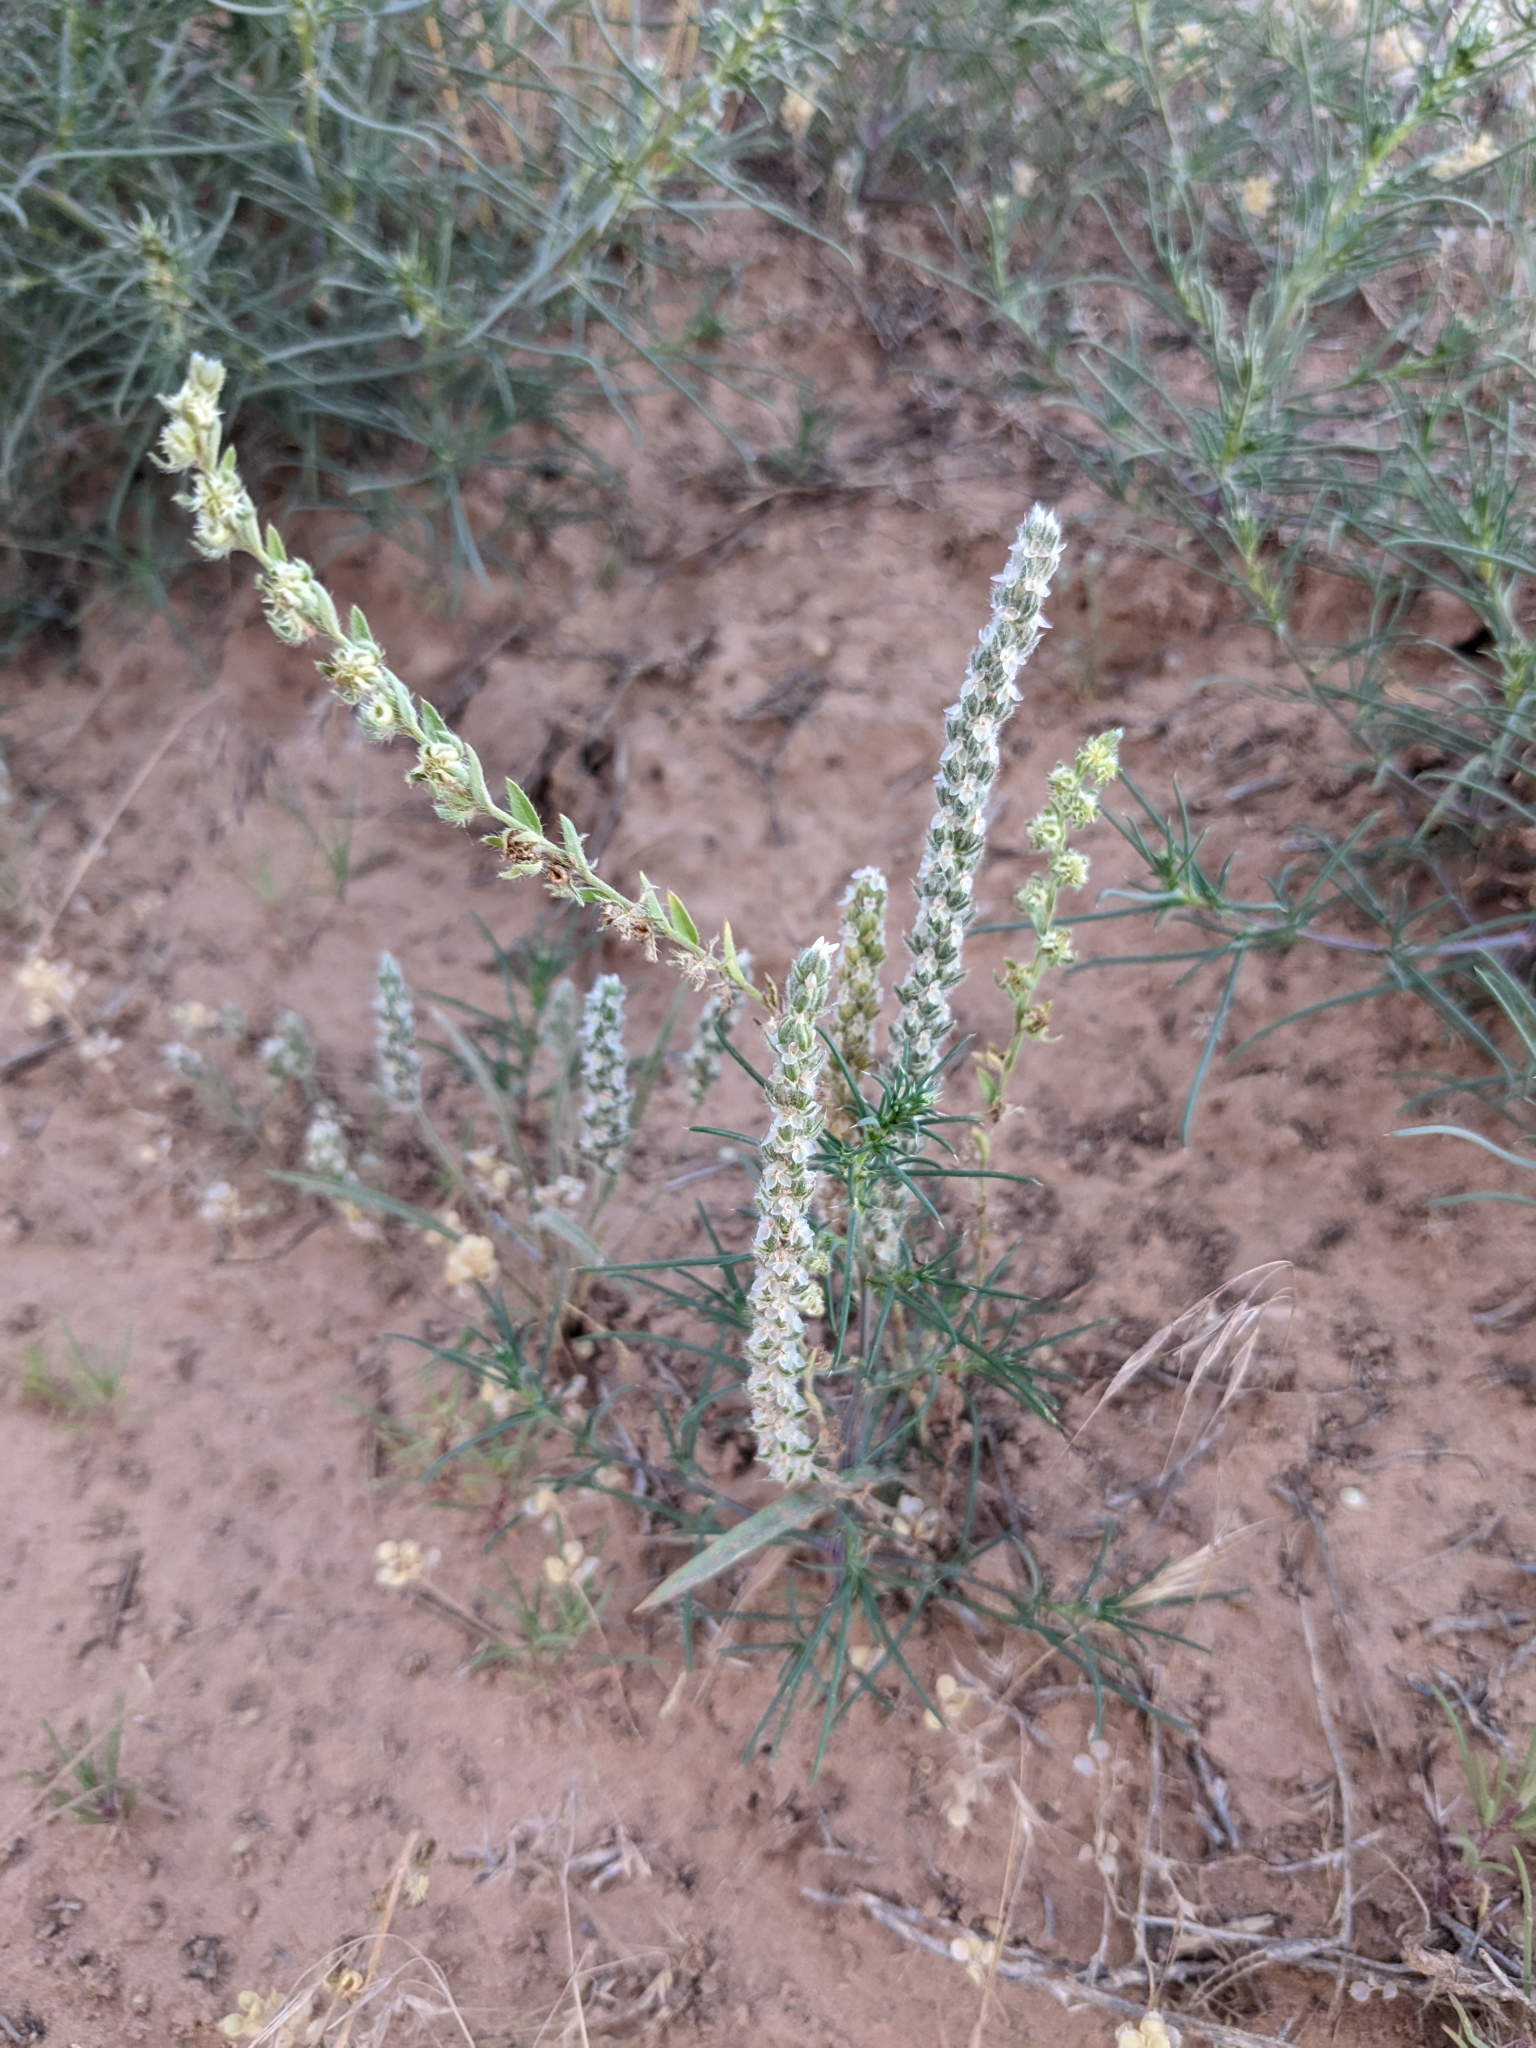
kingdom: Plantae
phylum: Tracheophyta
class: Magnoliopsida
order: Lamiales
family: Plantaginaceae
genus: Plantago
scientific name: Plantago patagonica
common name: Patagonia indian-wheat
